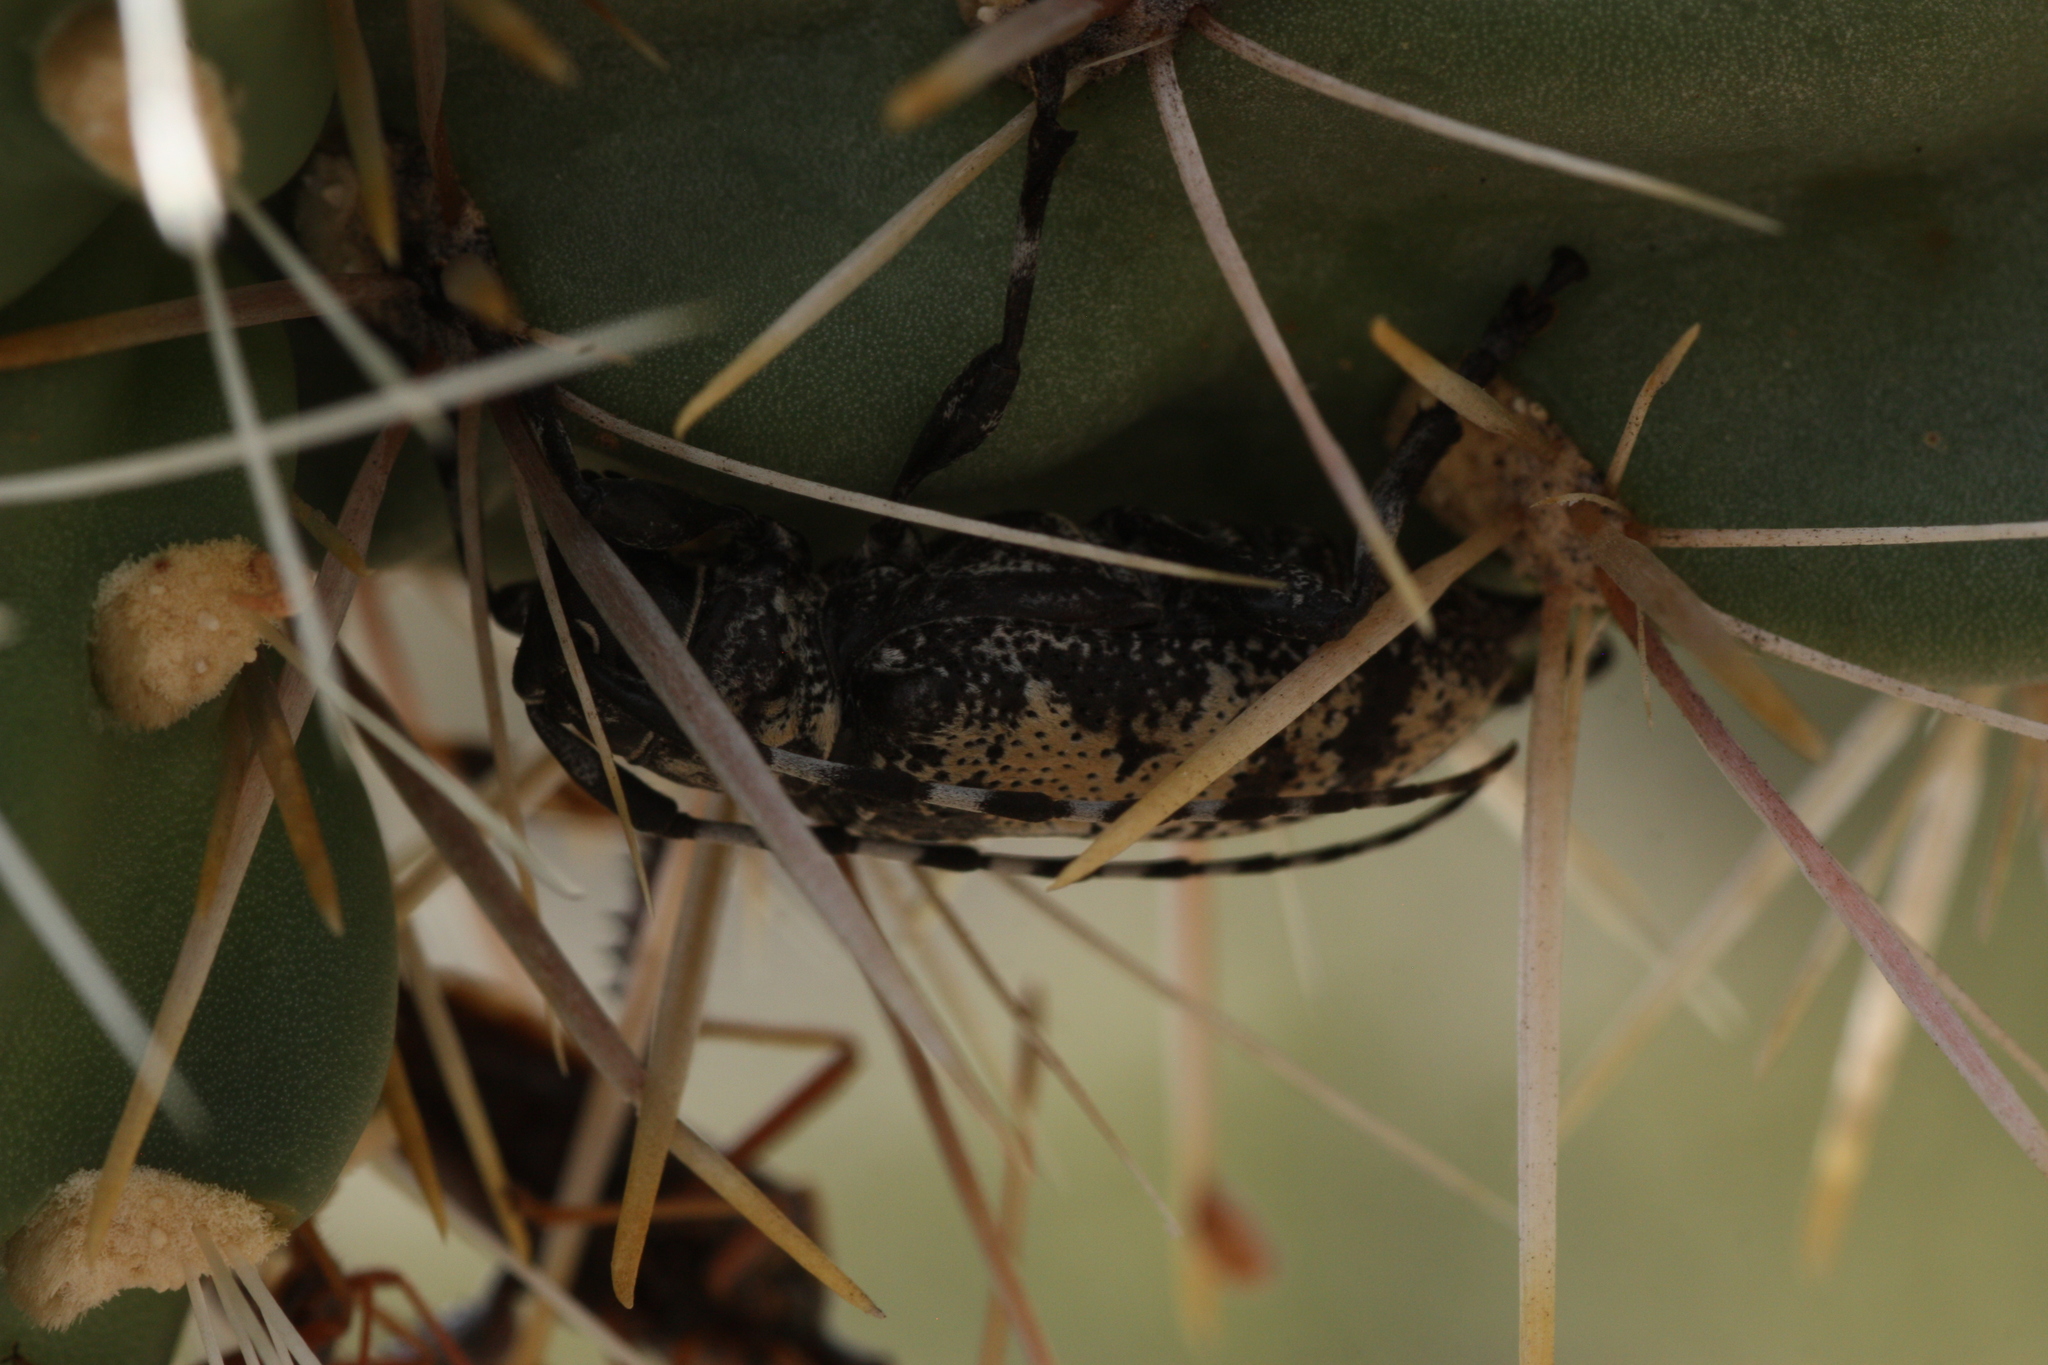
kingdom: Animalia
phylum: Arthropoda
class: Insecta
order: Coleoptera
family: Cerambycidae
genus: Coenopoeus
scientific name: Coenopoeus palmeri
